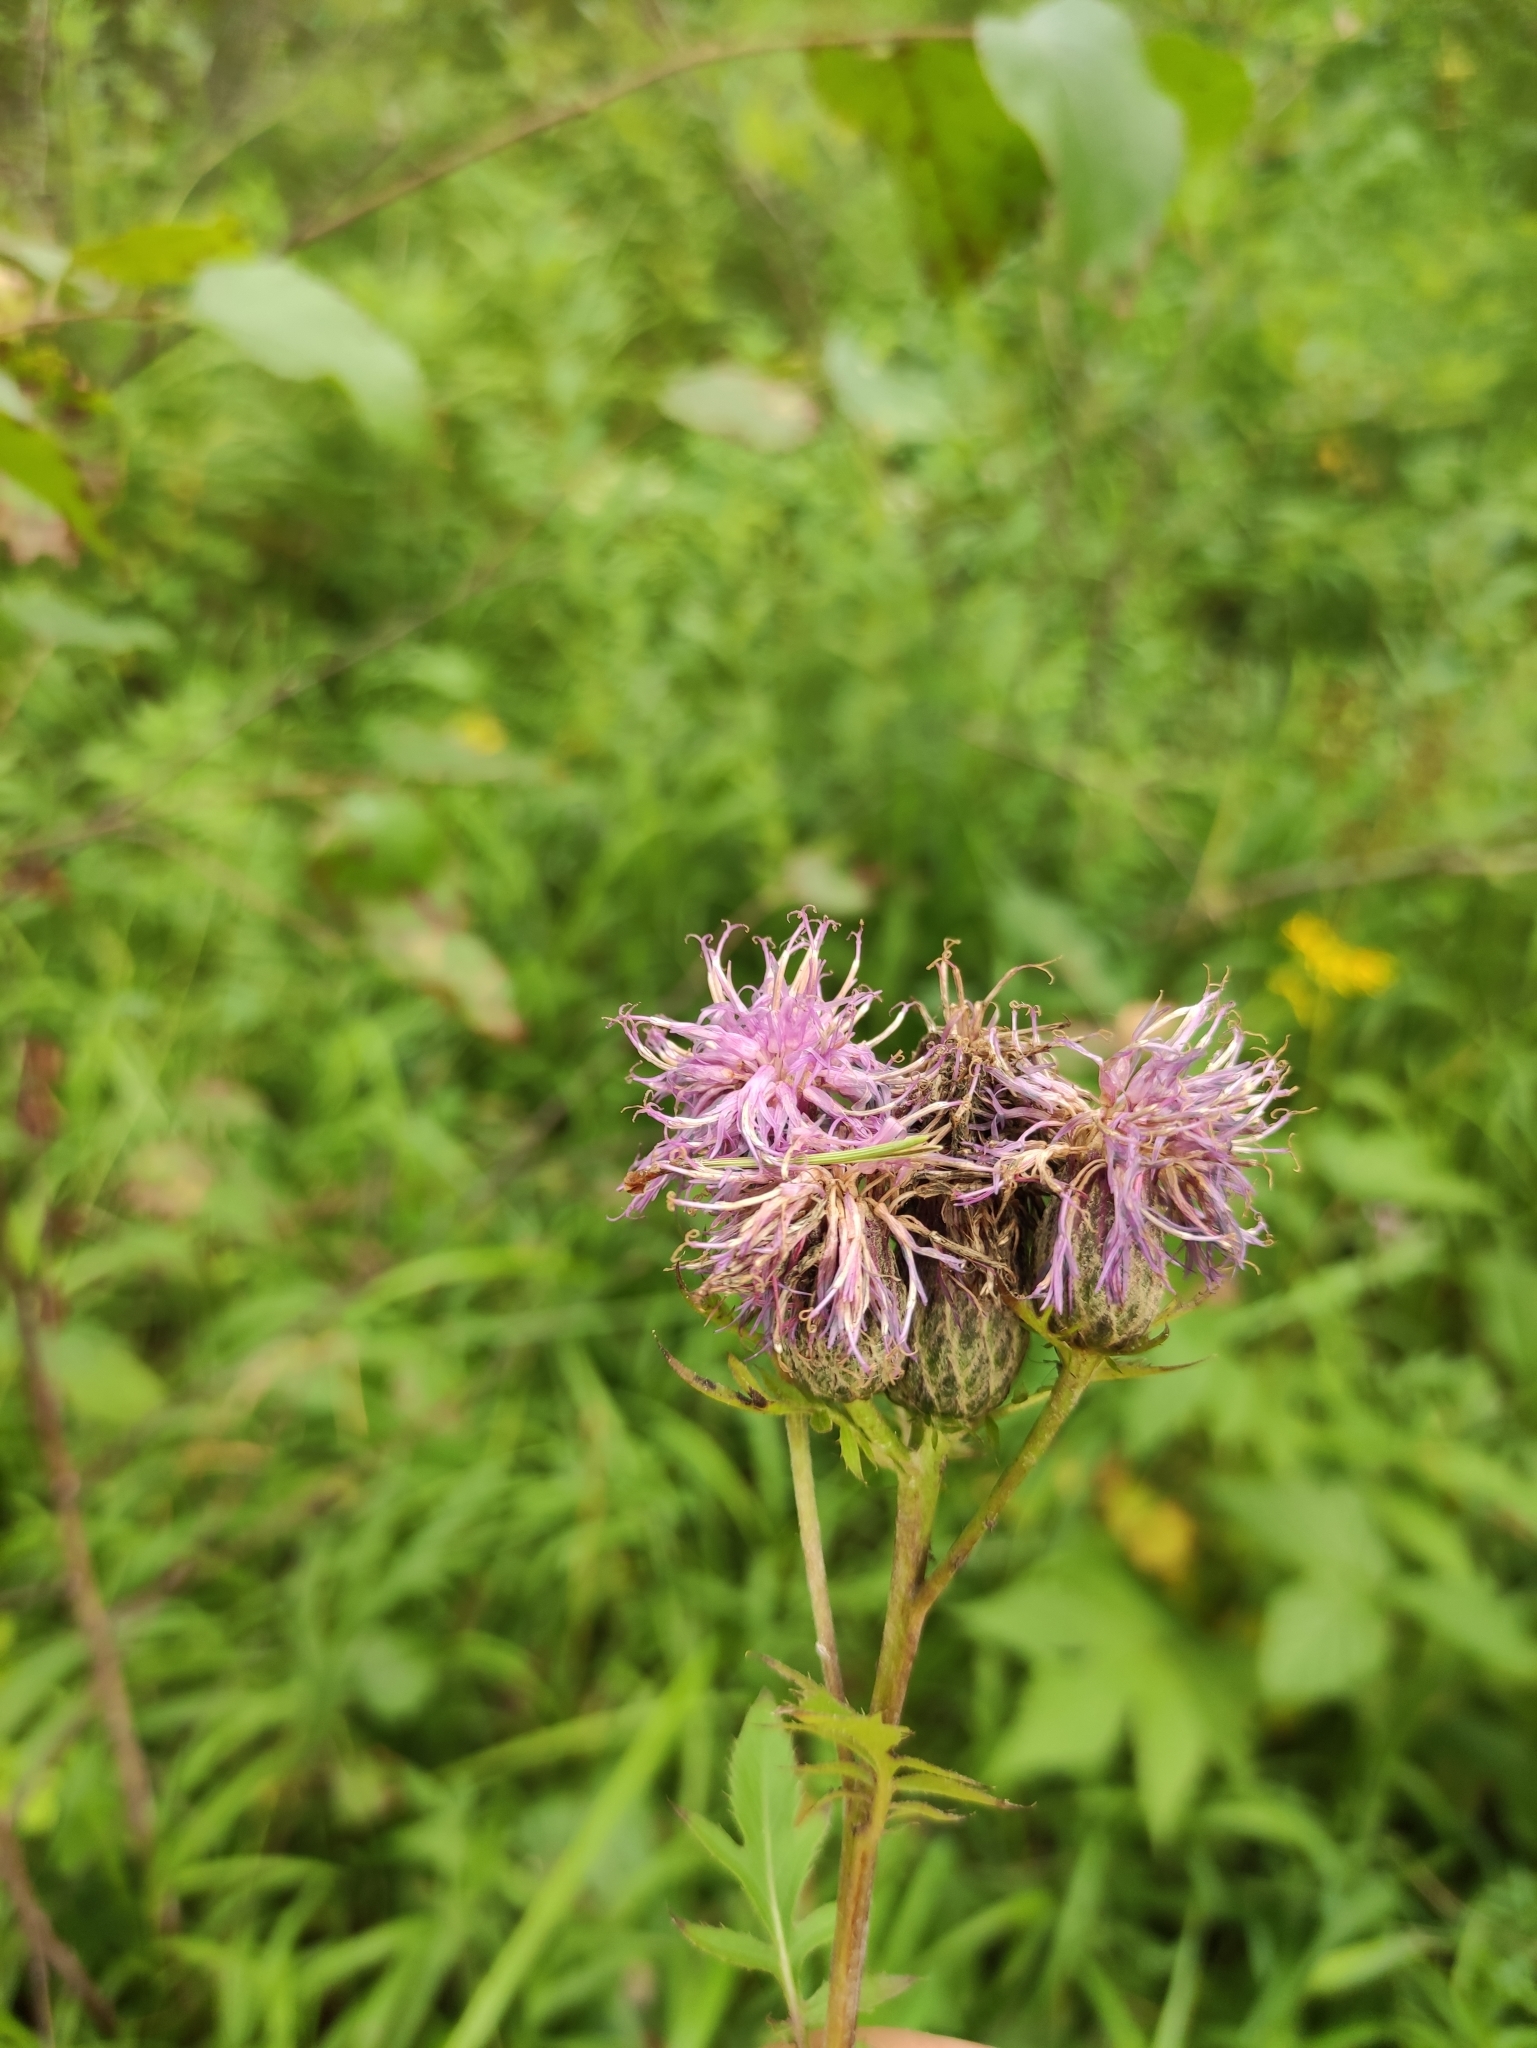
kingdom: Plantae
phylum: Tracheophyta
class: Magnoliopsida
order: Asterales
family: Asteraceae
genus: Serratula
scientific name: Serratula coronata
